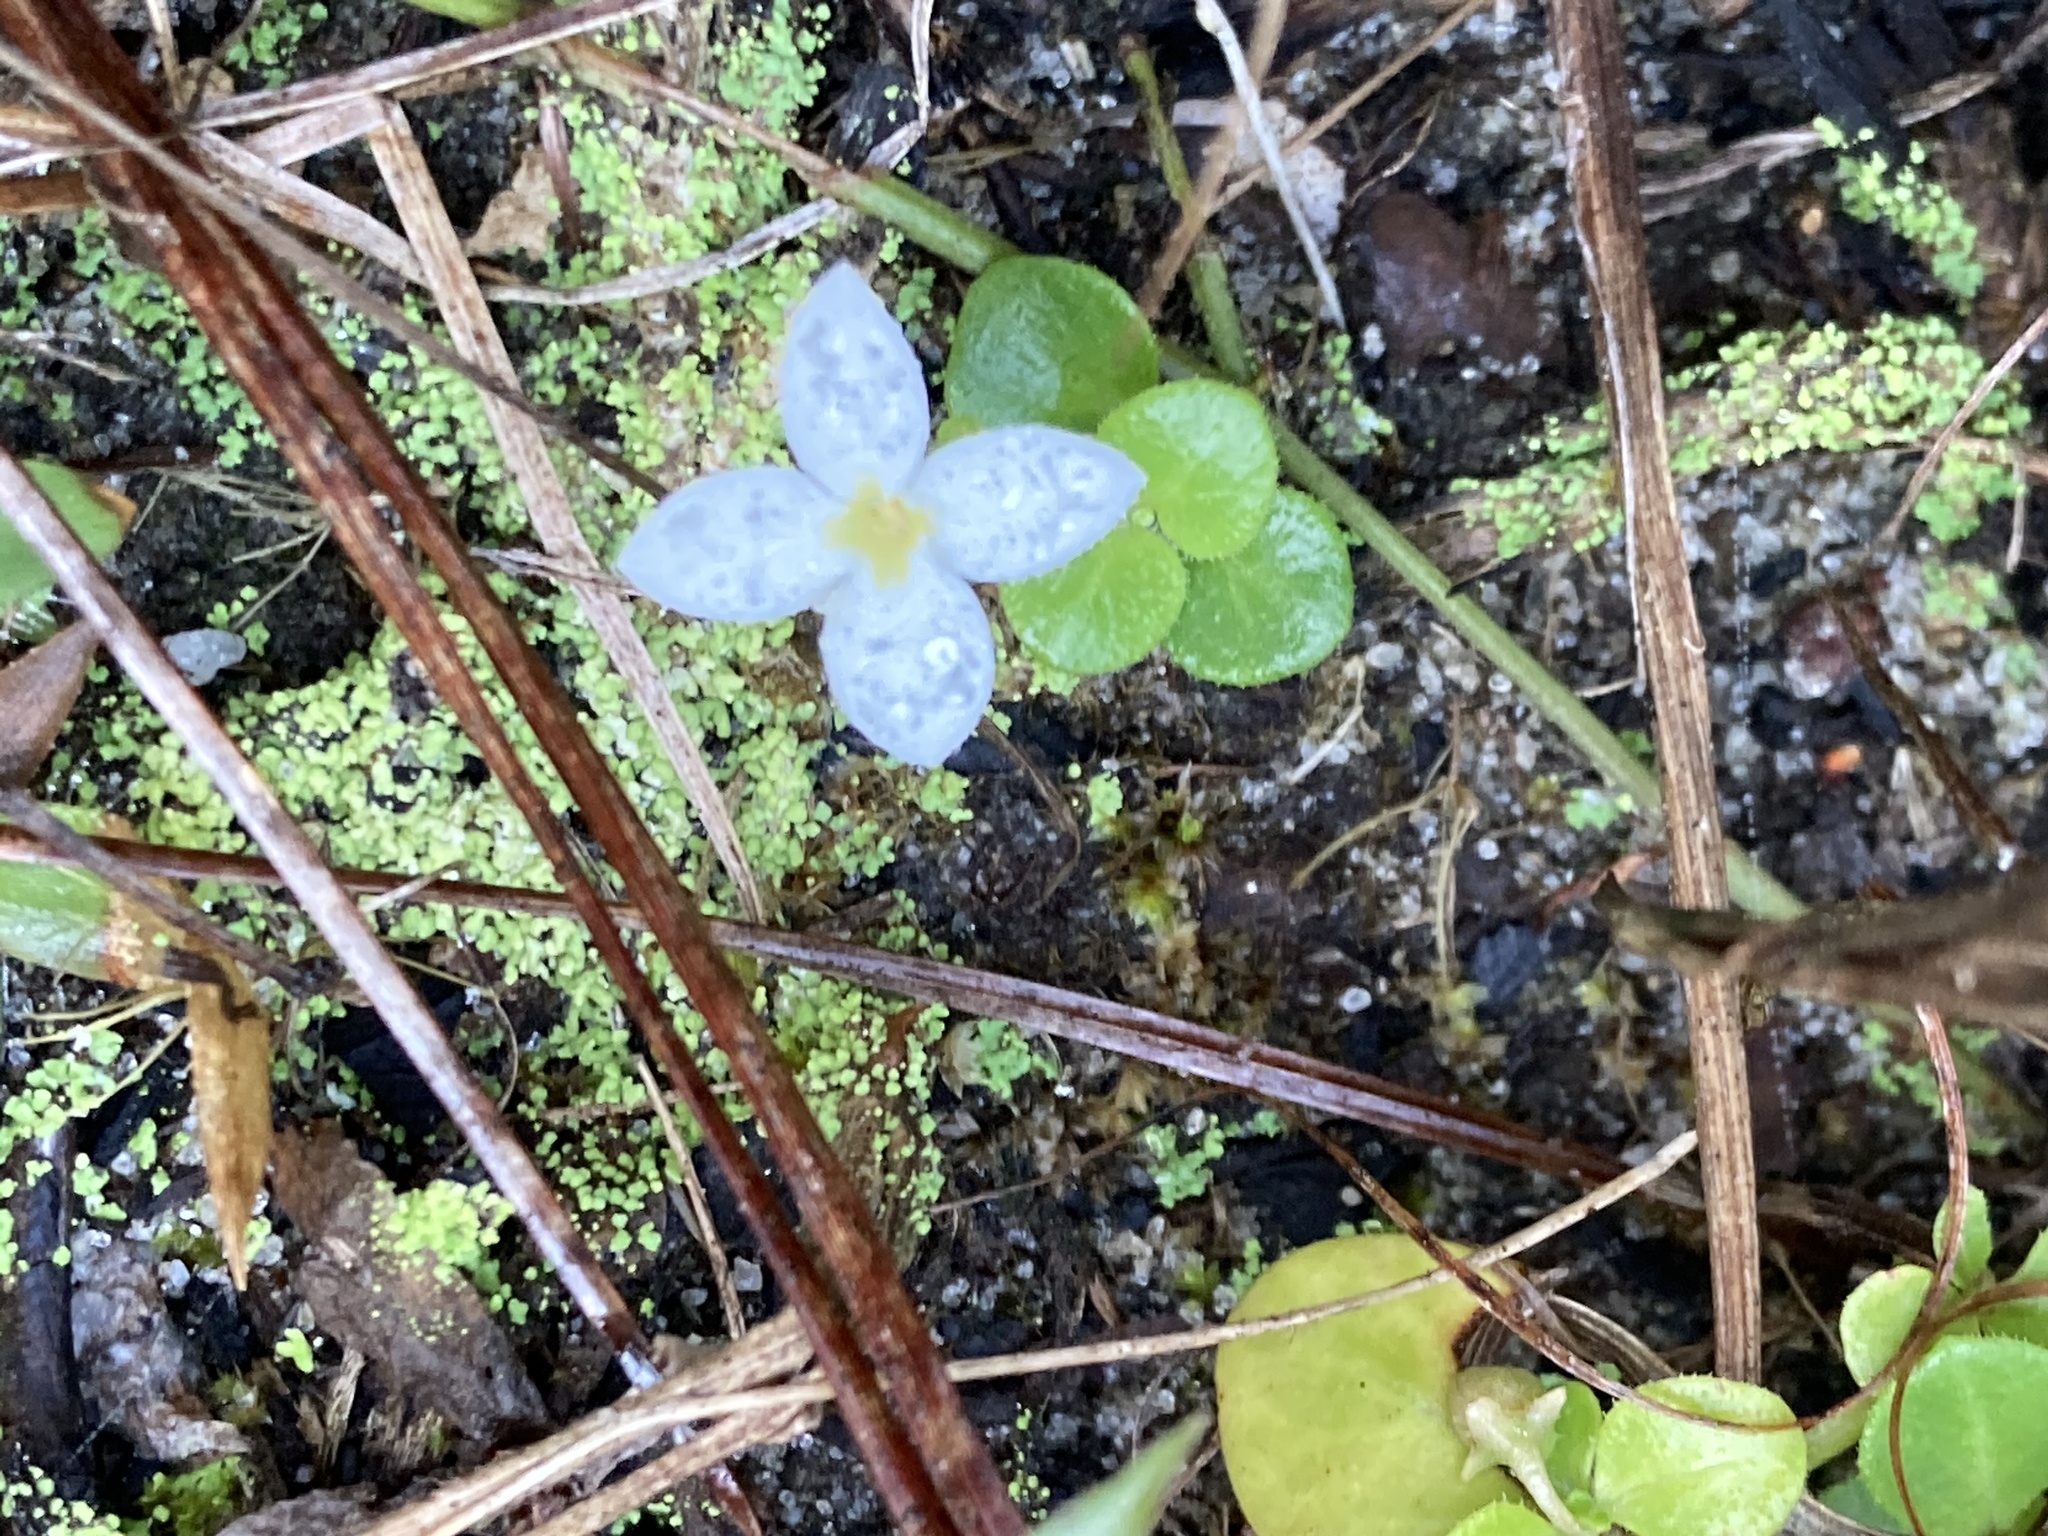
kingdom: Plantae
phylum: Tracheophyta
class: Magnoliopsida
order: Gentianales
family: Rubiaceae
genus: Houstonia
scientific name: Houstonia procumbens
